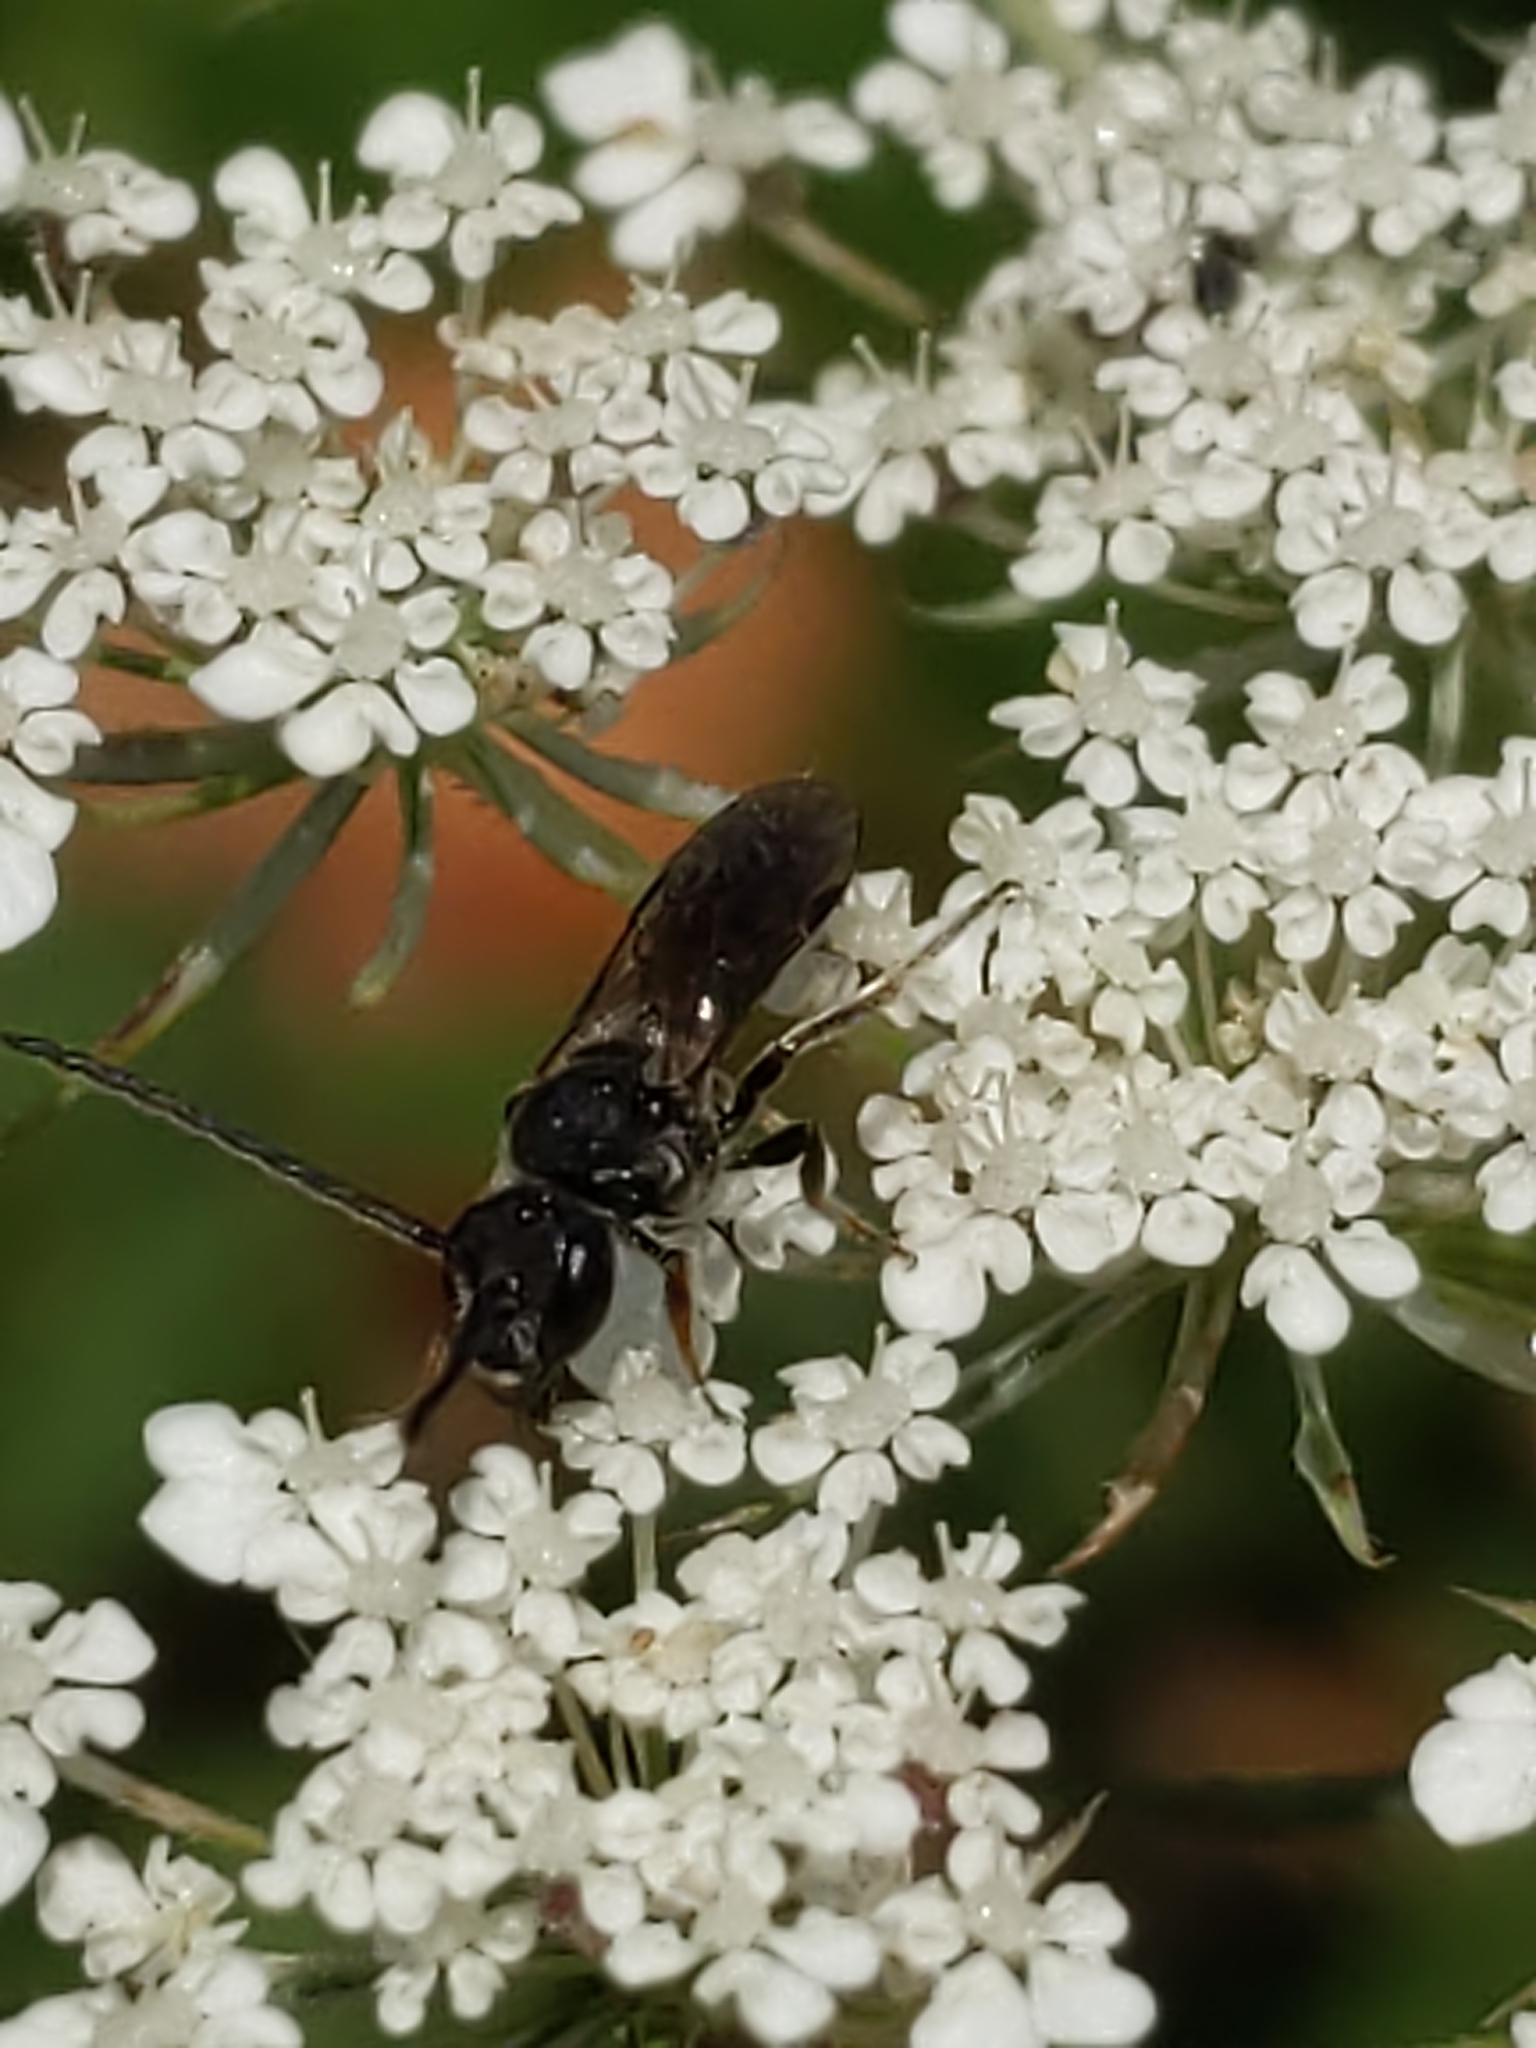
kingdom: Animalia
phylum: Arthropoda
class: Insecta
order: Hymenoptera
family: Halictidae
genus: Lasioglossum
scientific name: Lasioglossum
